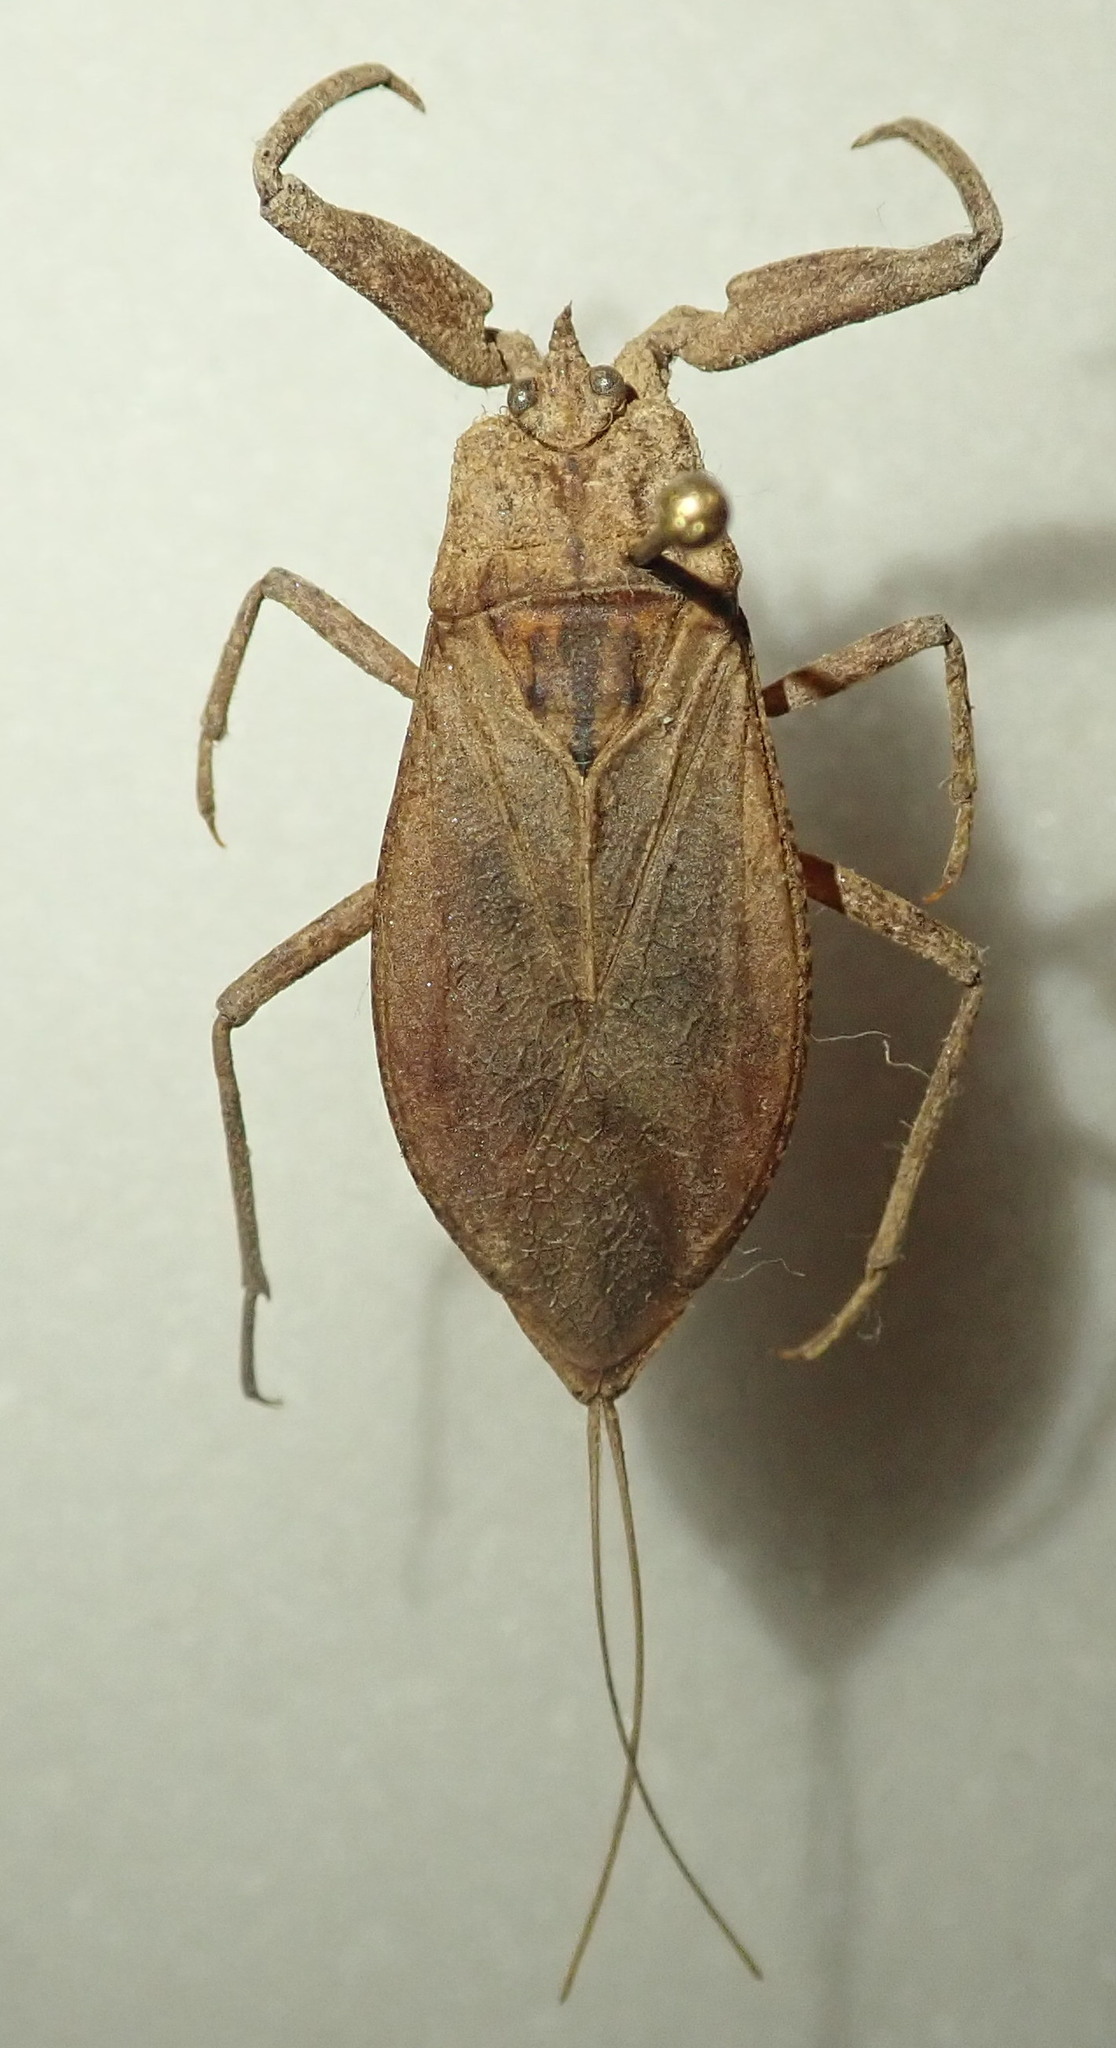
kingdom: Animalia
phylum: Arthropoda
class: Insecta
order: Hemiptera
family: Nepidae
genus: Nepa
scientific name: Nepa cinerea
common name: Water scorpion
